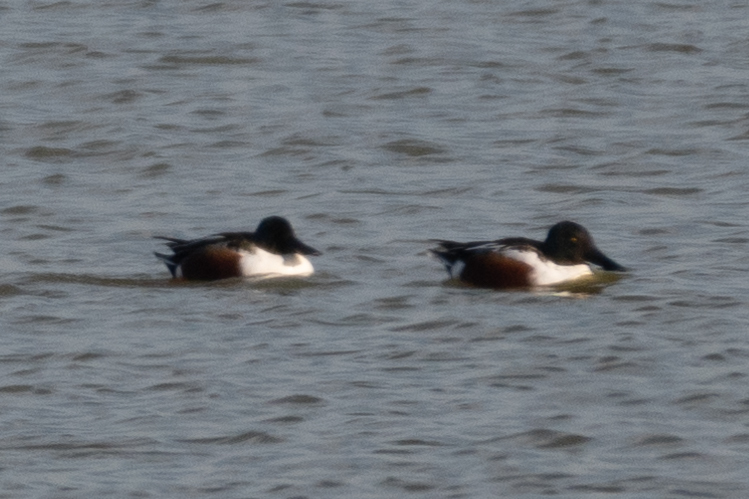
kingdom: Animalia
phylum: Chordata
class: Aves
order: Anseriformes
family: Anatidae
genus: Spatula
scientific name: Spatula clypeata
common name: Northern shoveler
